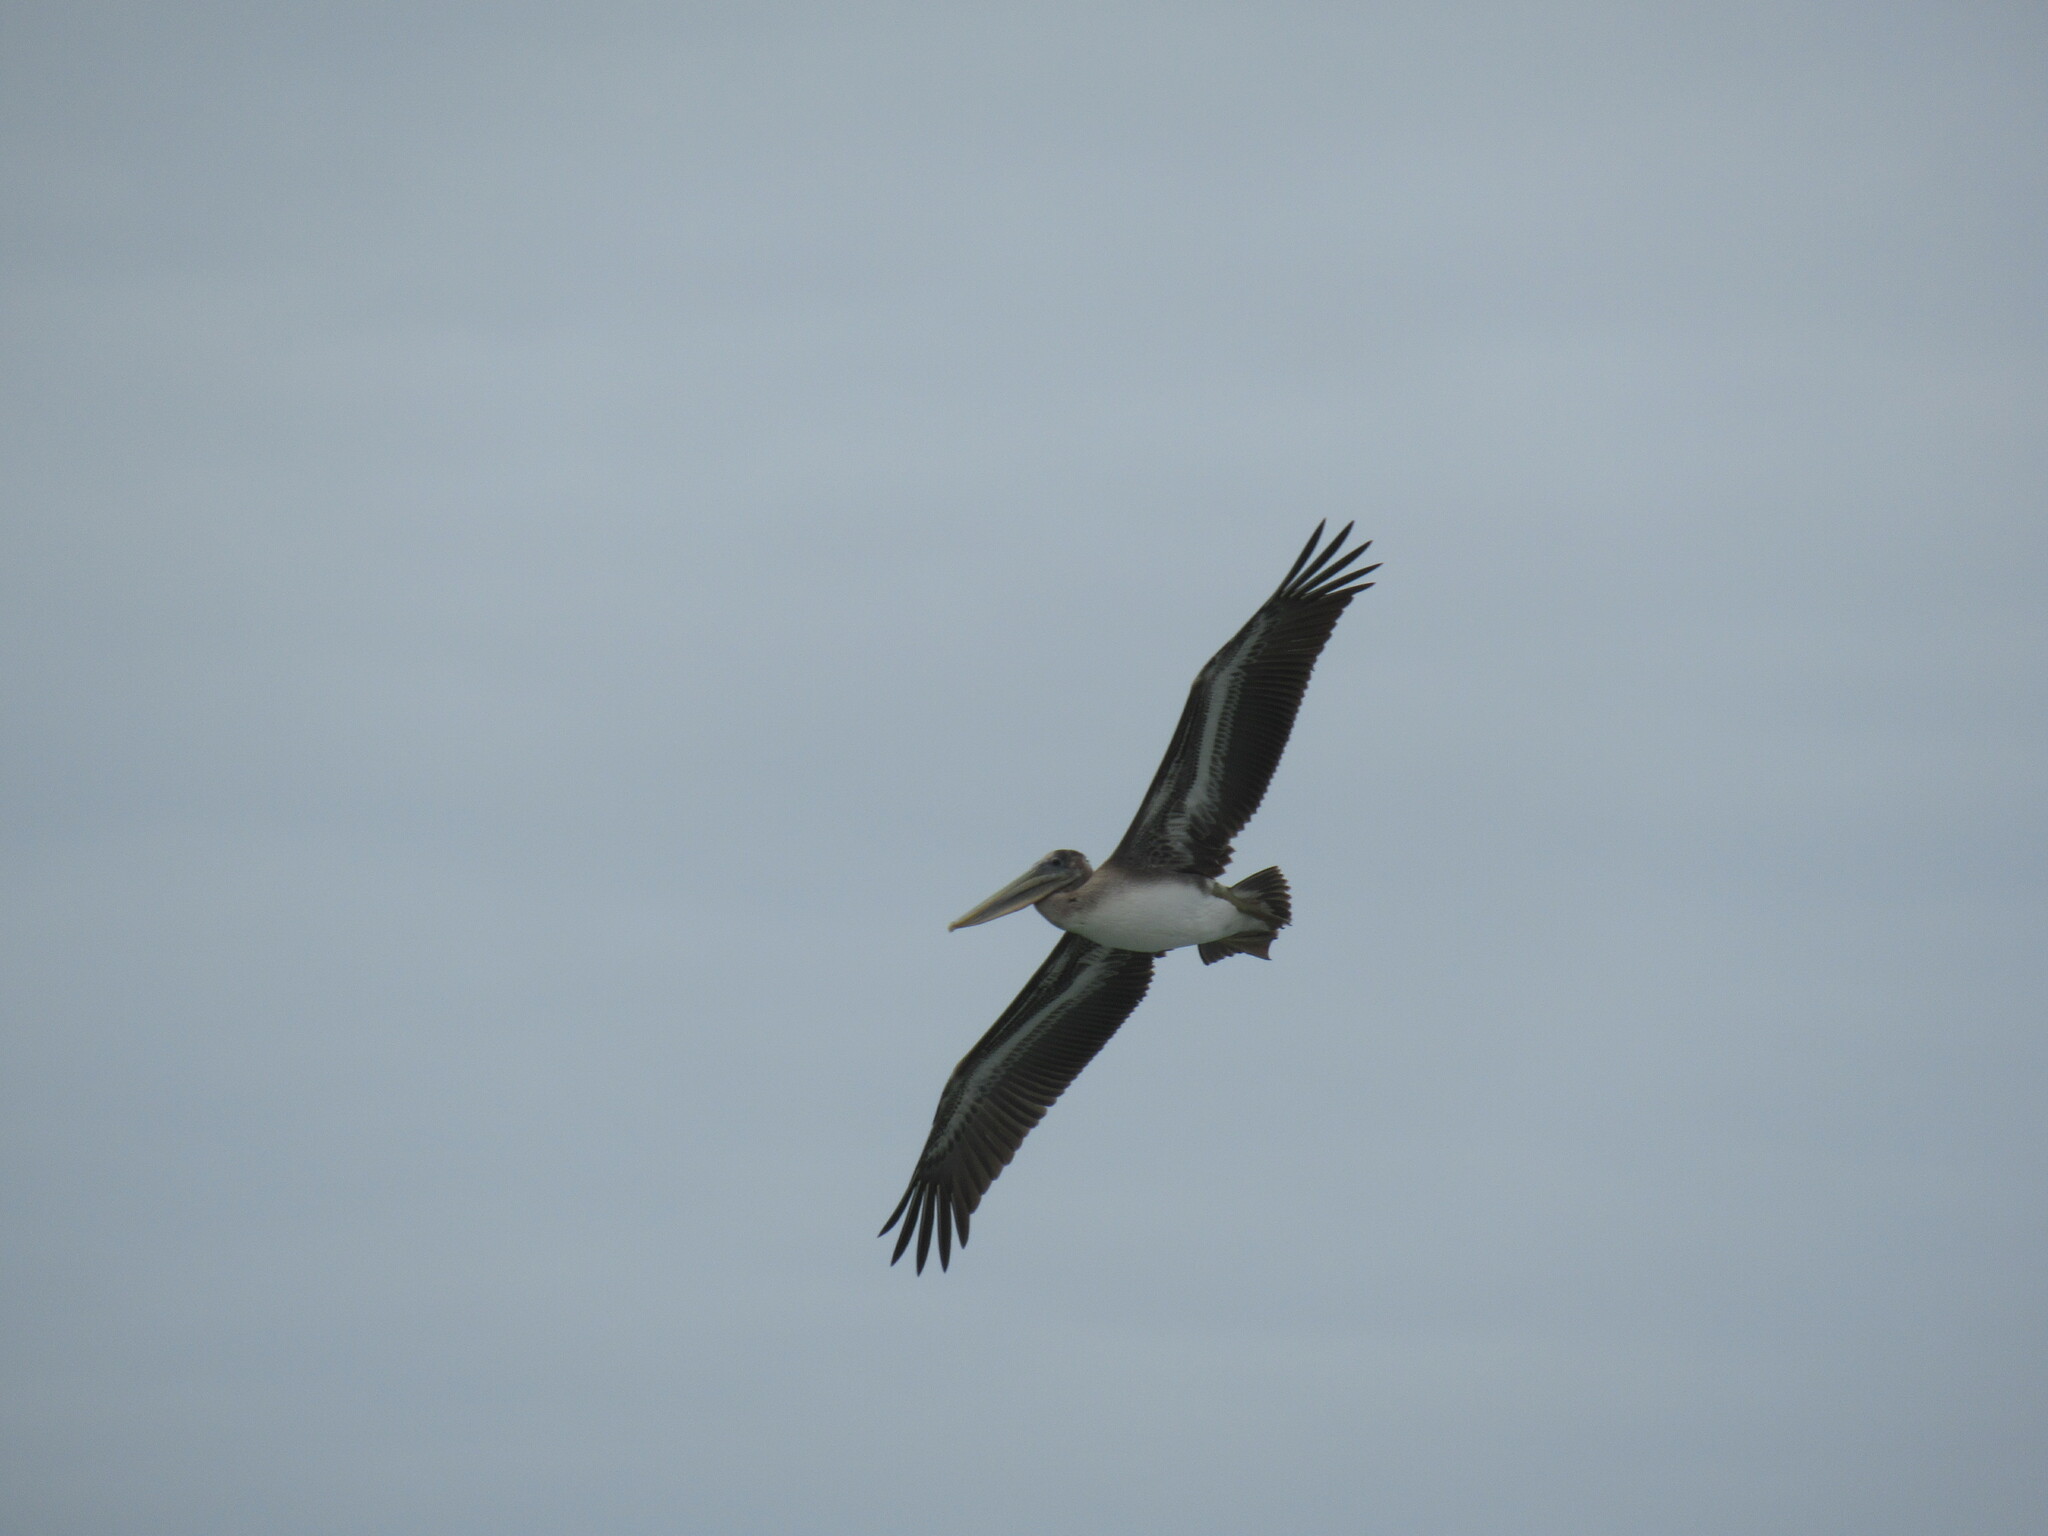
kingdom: Animalia
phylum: Chordata
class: Aves
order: Pelecaniformes
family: Pelecanidae
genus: Pelecanus
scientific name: Pelecanus occidentalis
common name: Brown pelican
